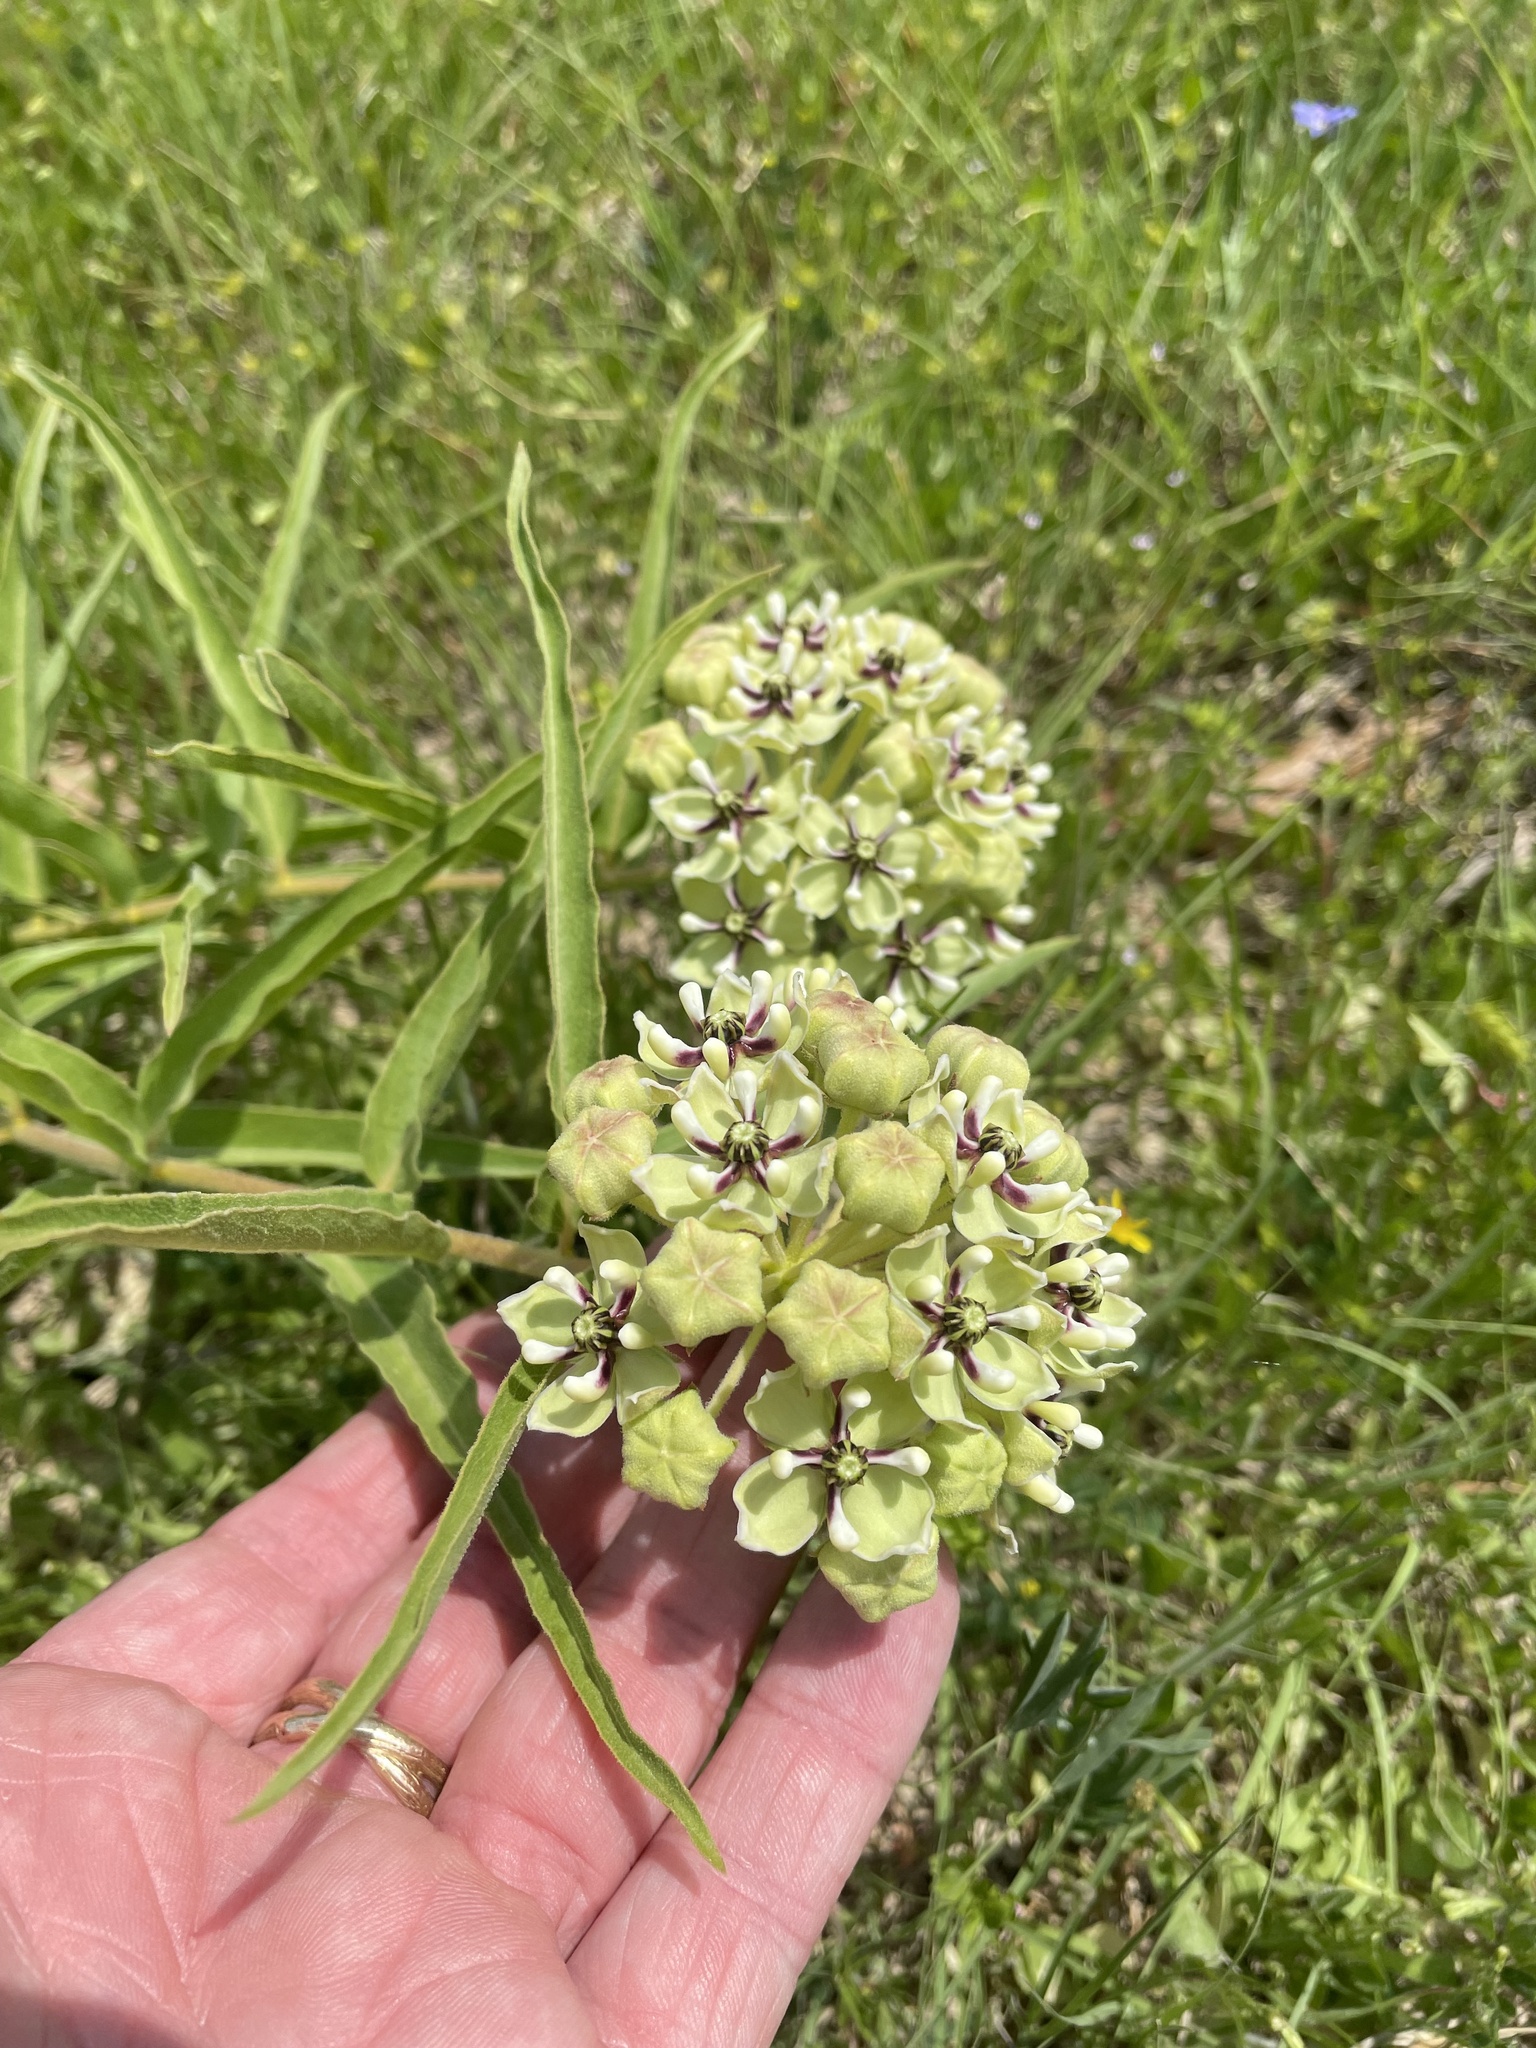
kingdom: Plantae
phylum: Tracheophyta
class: Magnoliopsida
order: Gentianales
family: Apocynaceae
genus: Asclepias
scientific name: Asclepias asperula
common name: Antelope horns
